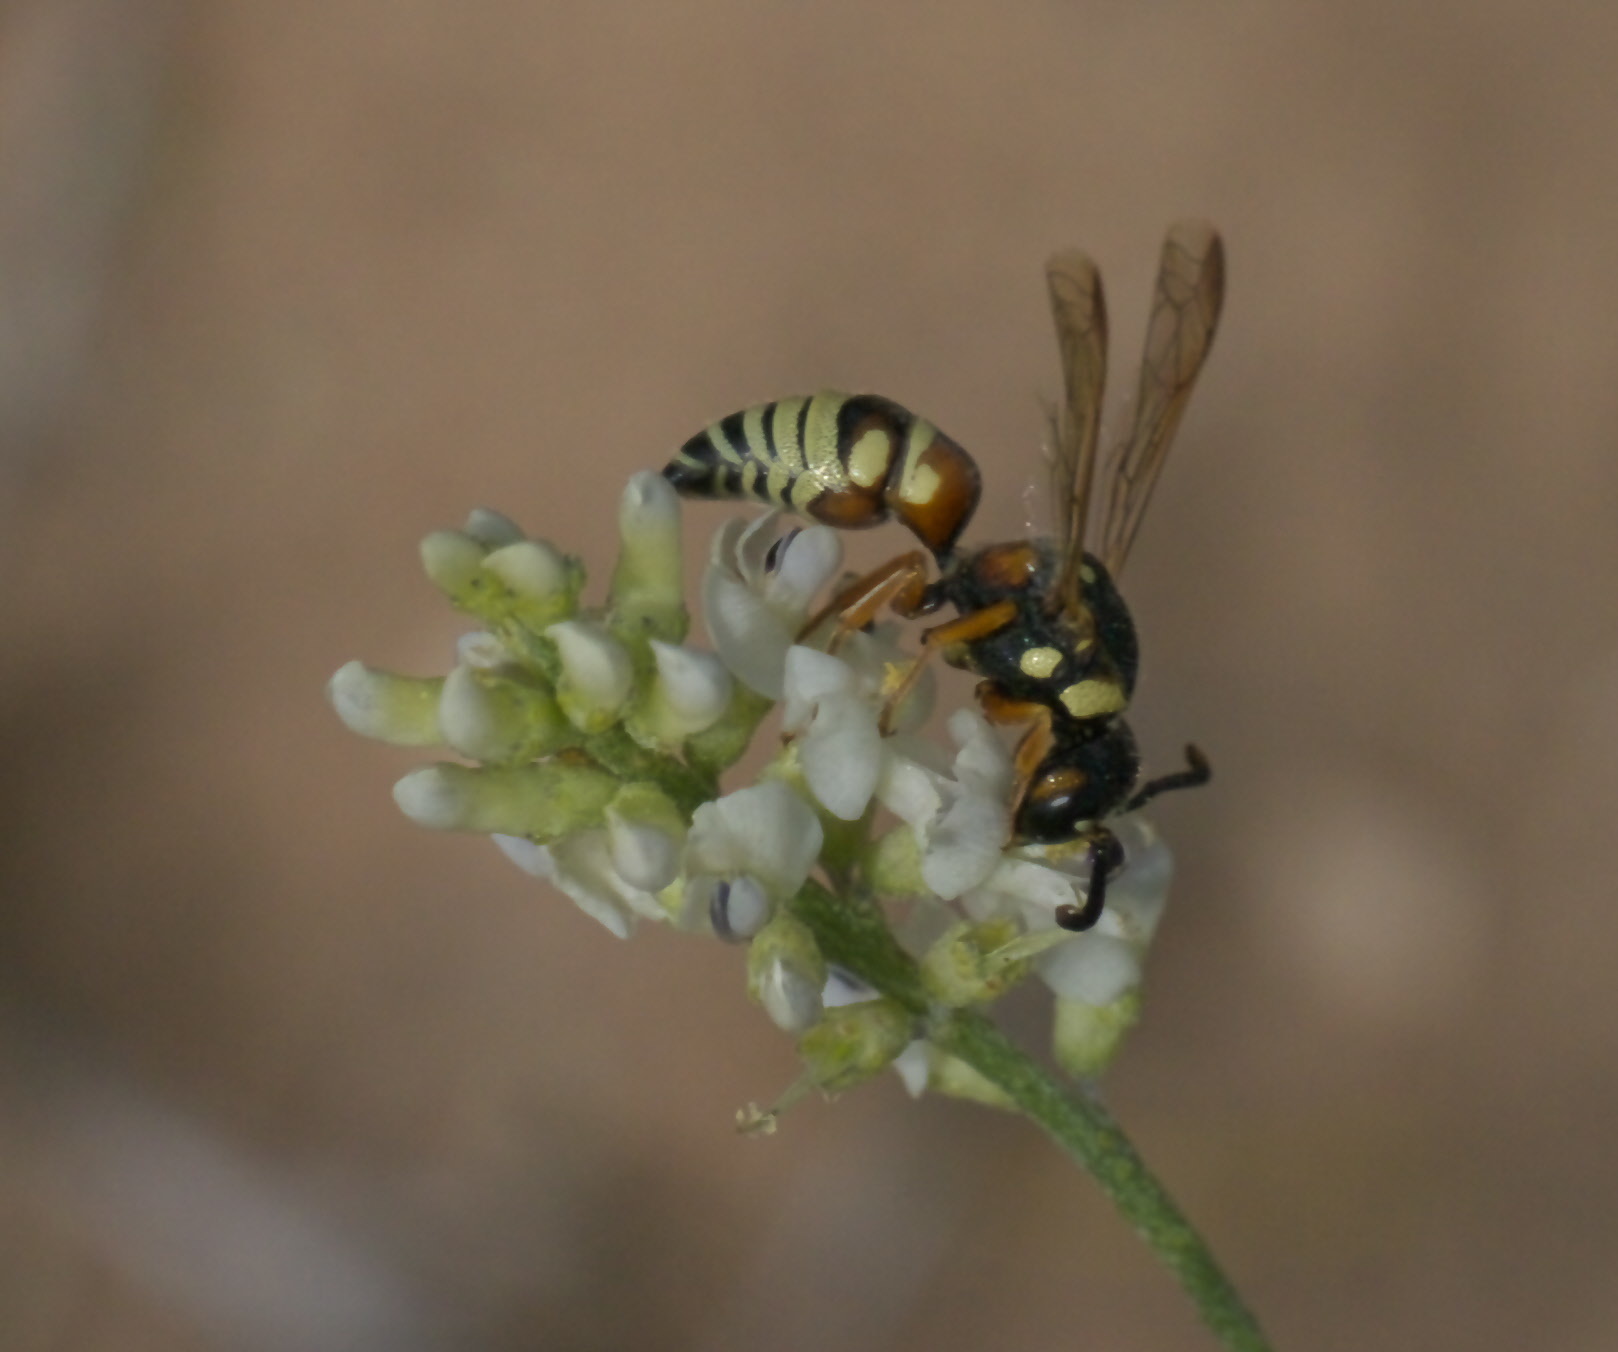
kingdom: Animalia
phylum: Arthropoda
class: Insecta
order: Hymenoptera
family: Eumenidae
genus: Euodynerus
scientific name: Euodynerus annulatus
